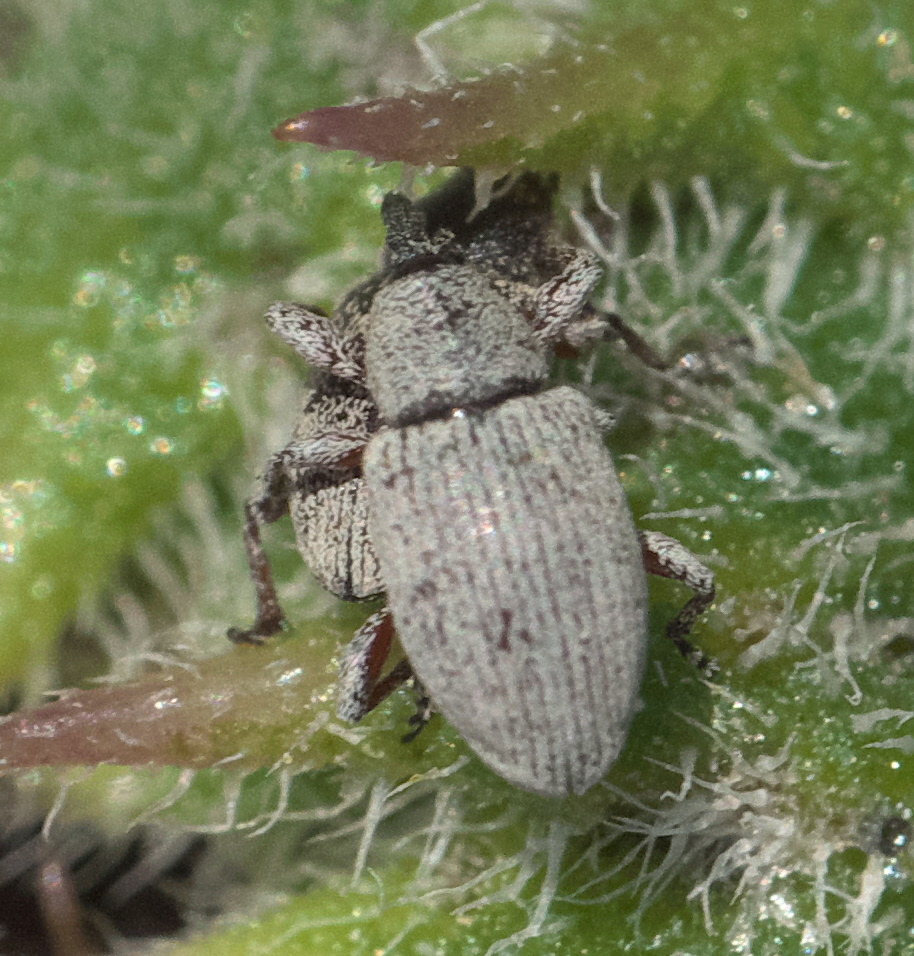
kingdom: Animalia
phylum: Arthropoda
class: Insecta
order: Coleoptera
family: Curculionidae
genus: Smicronyx
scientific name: Smicronyx sordidus
